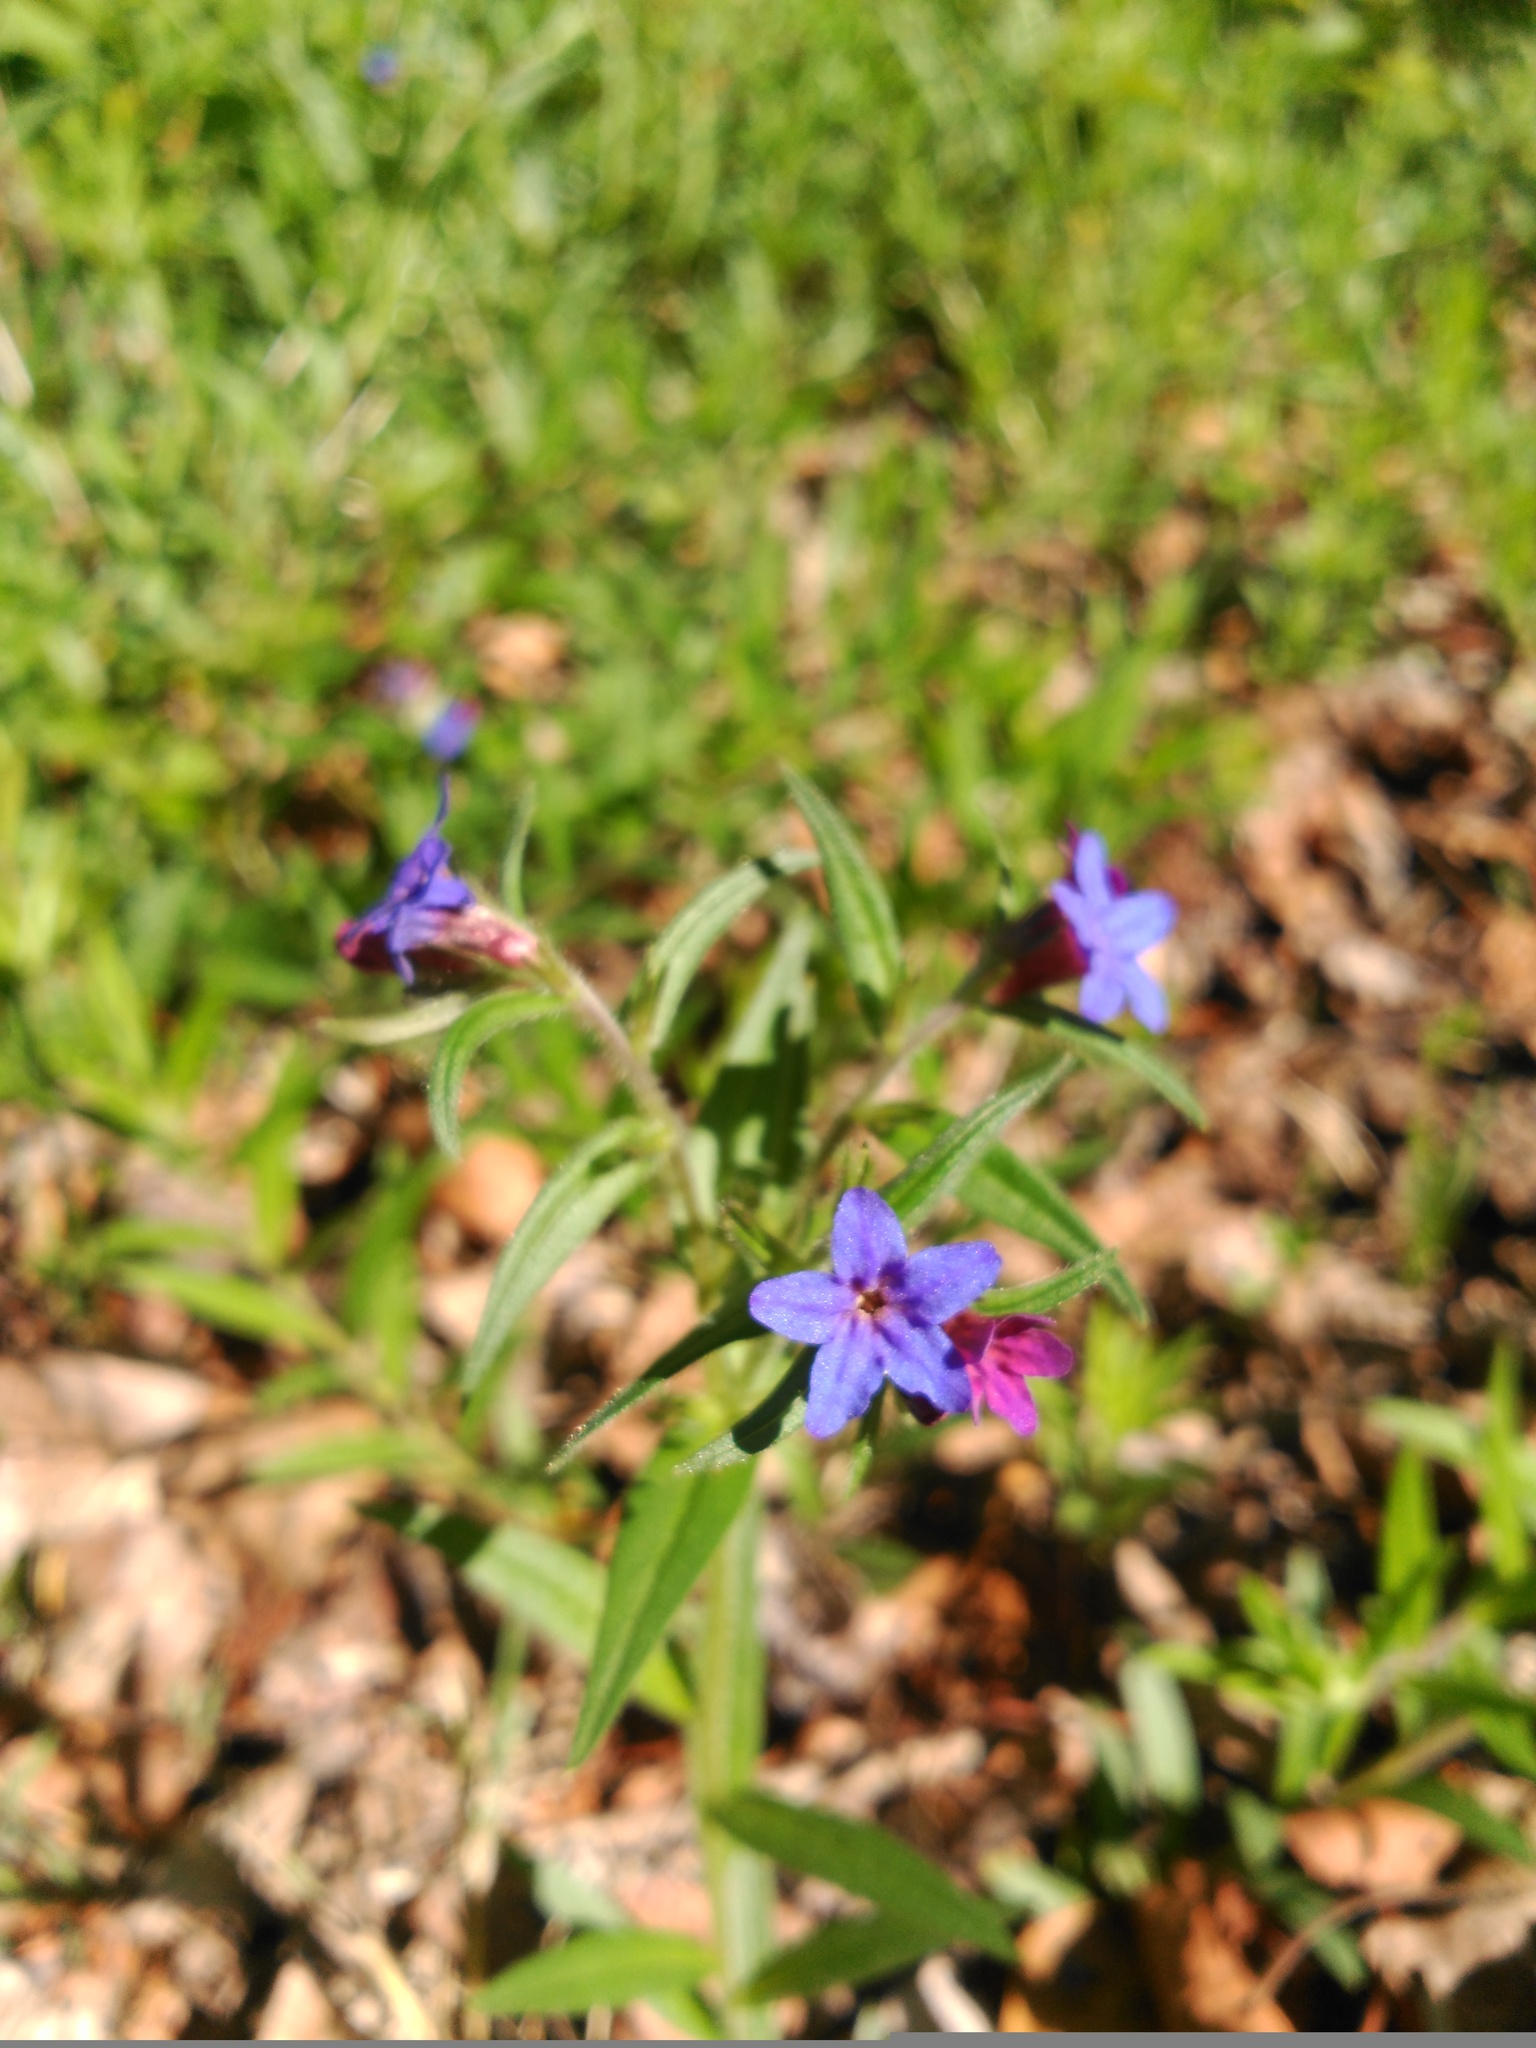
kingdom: Plantae
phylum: Tracheophyta
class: Magnoliopsida
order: Boraginales
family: Boraginaceae
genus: Aegonychon
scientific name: Aegonychon purpurocaeruleum
